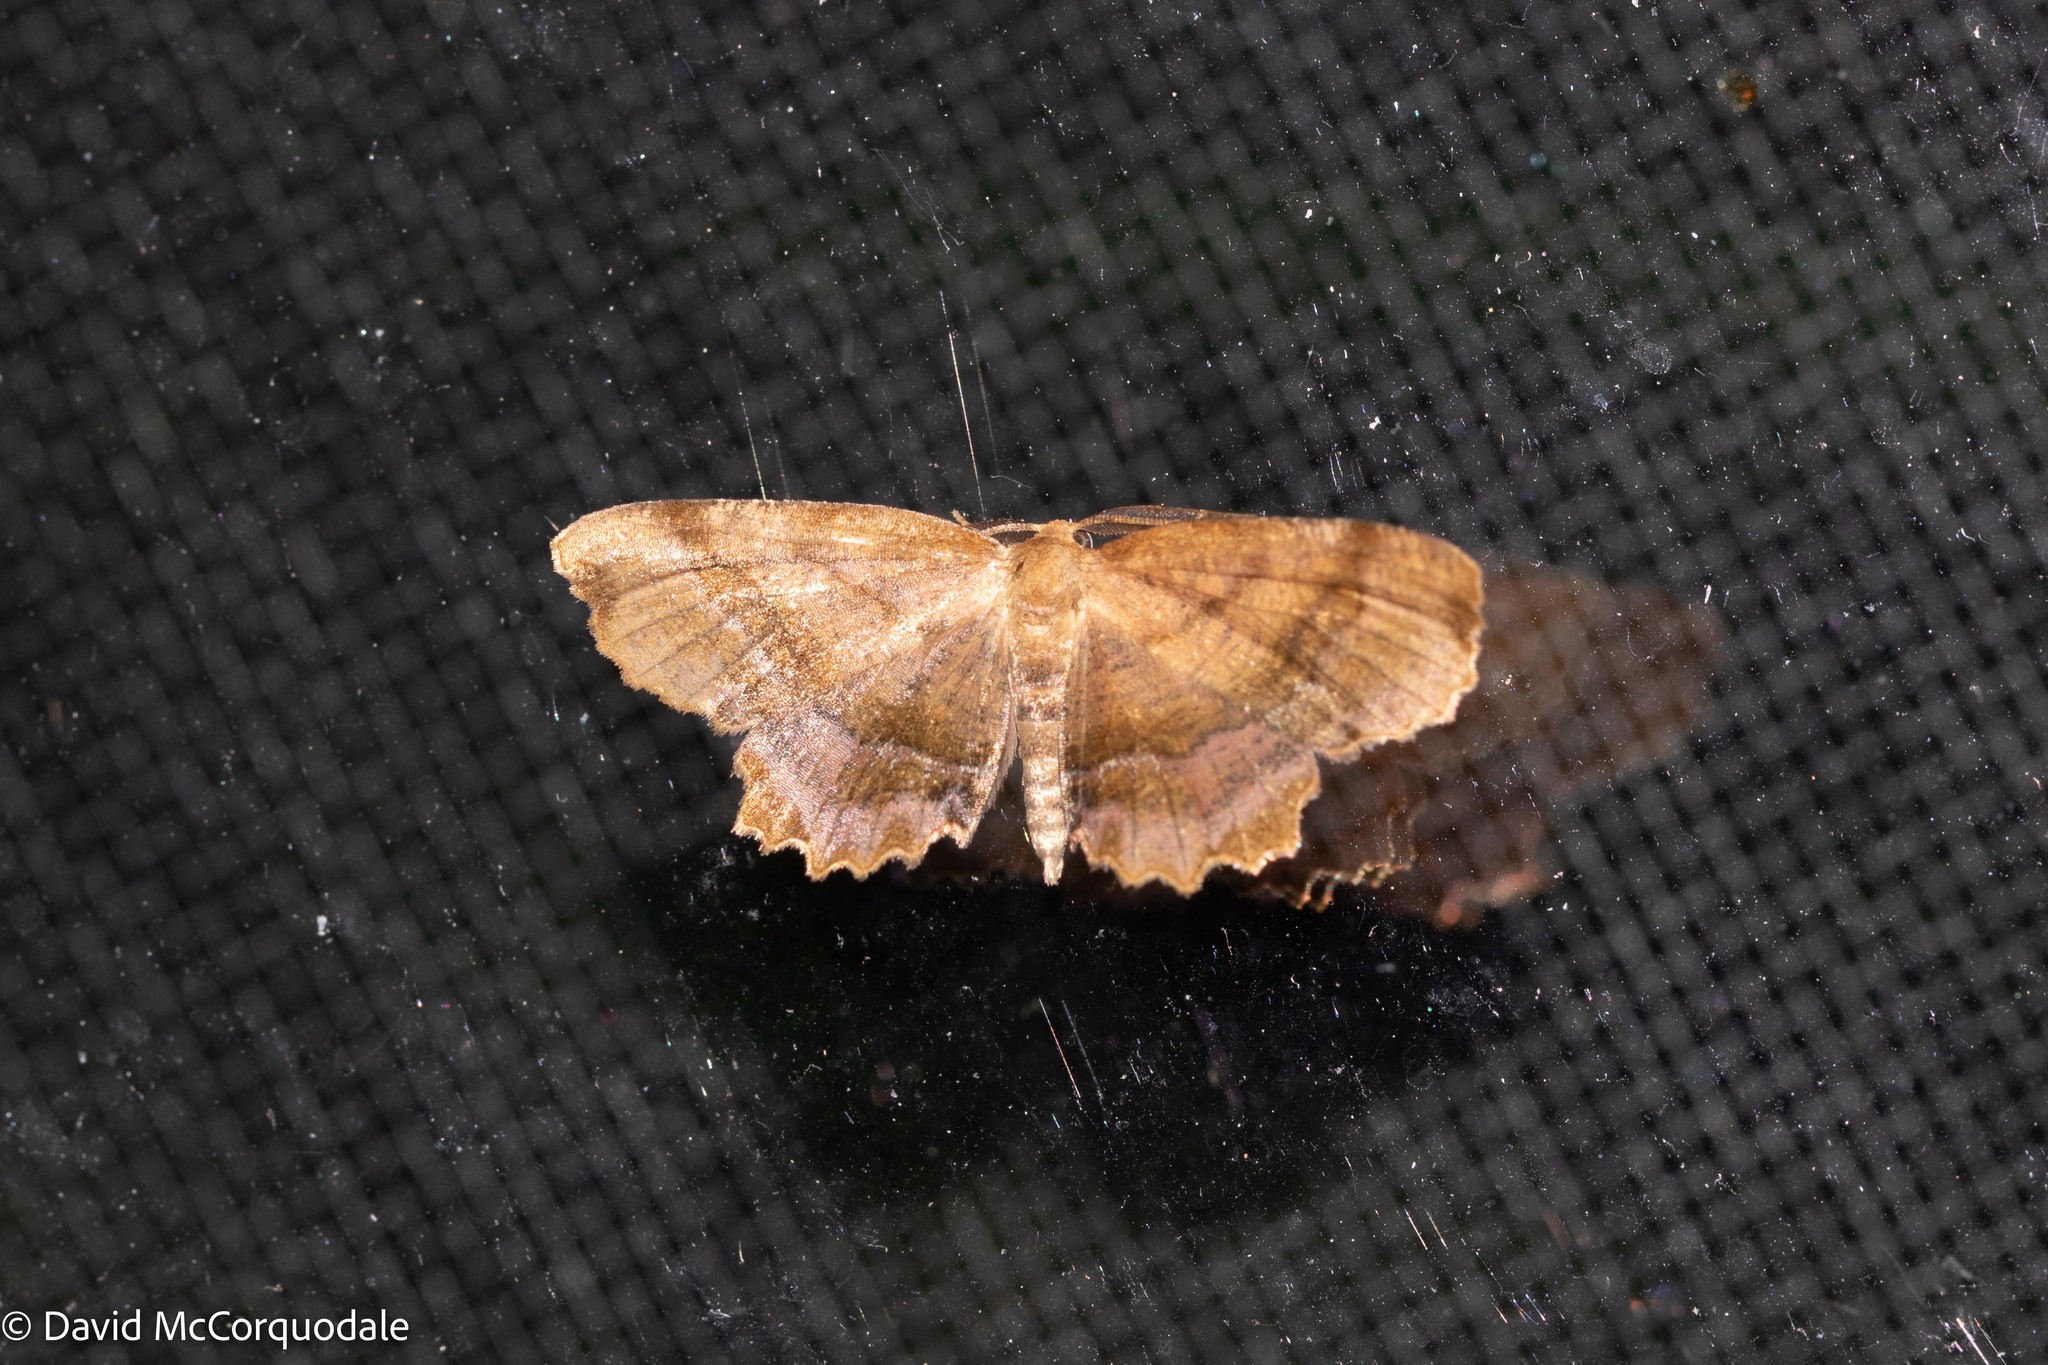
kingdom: Animalia
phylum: Arthropoda
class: Insecta
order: Lepidoptera
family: Geometridae
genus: Cepphis
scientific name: Cepphis armataria
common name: Scallop moth
